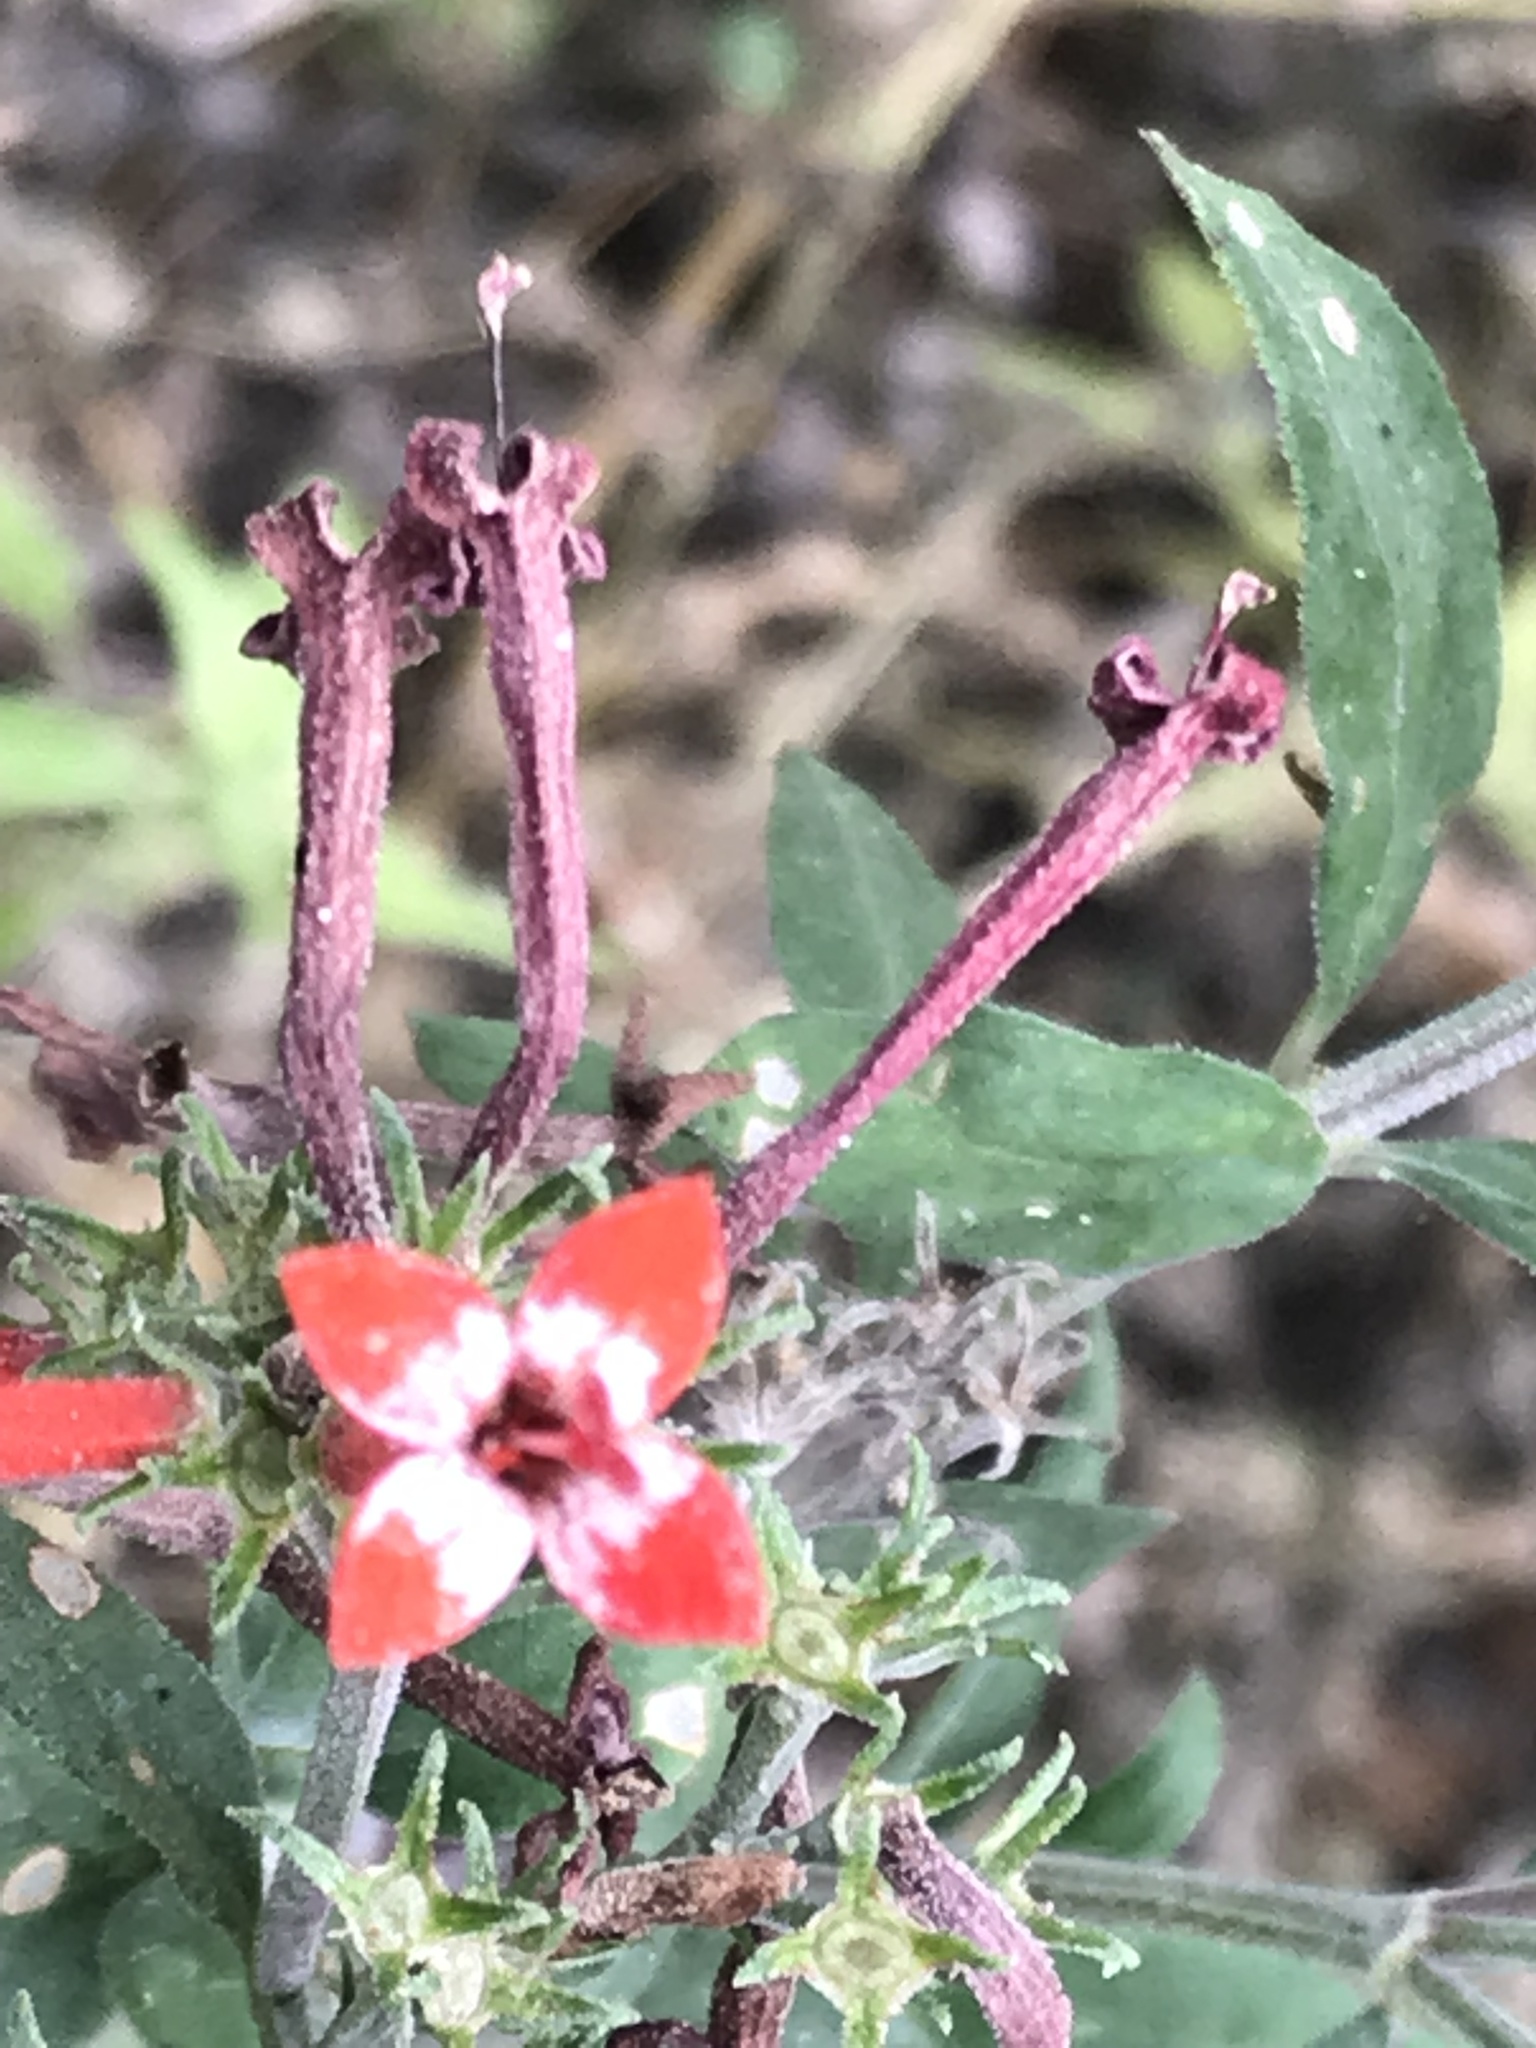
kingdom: Plantae
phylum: Tracheophyta
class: Magnoliopsida
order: Gentianales
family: Rubiaceae
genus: Bouvardia
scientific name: Bouvardia ternifolia
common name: Scarlet bouvardia
